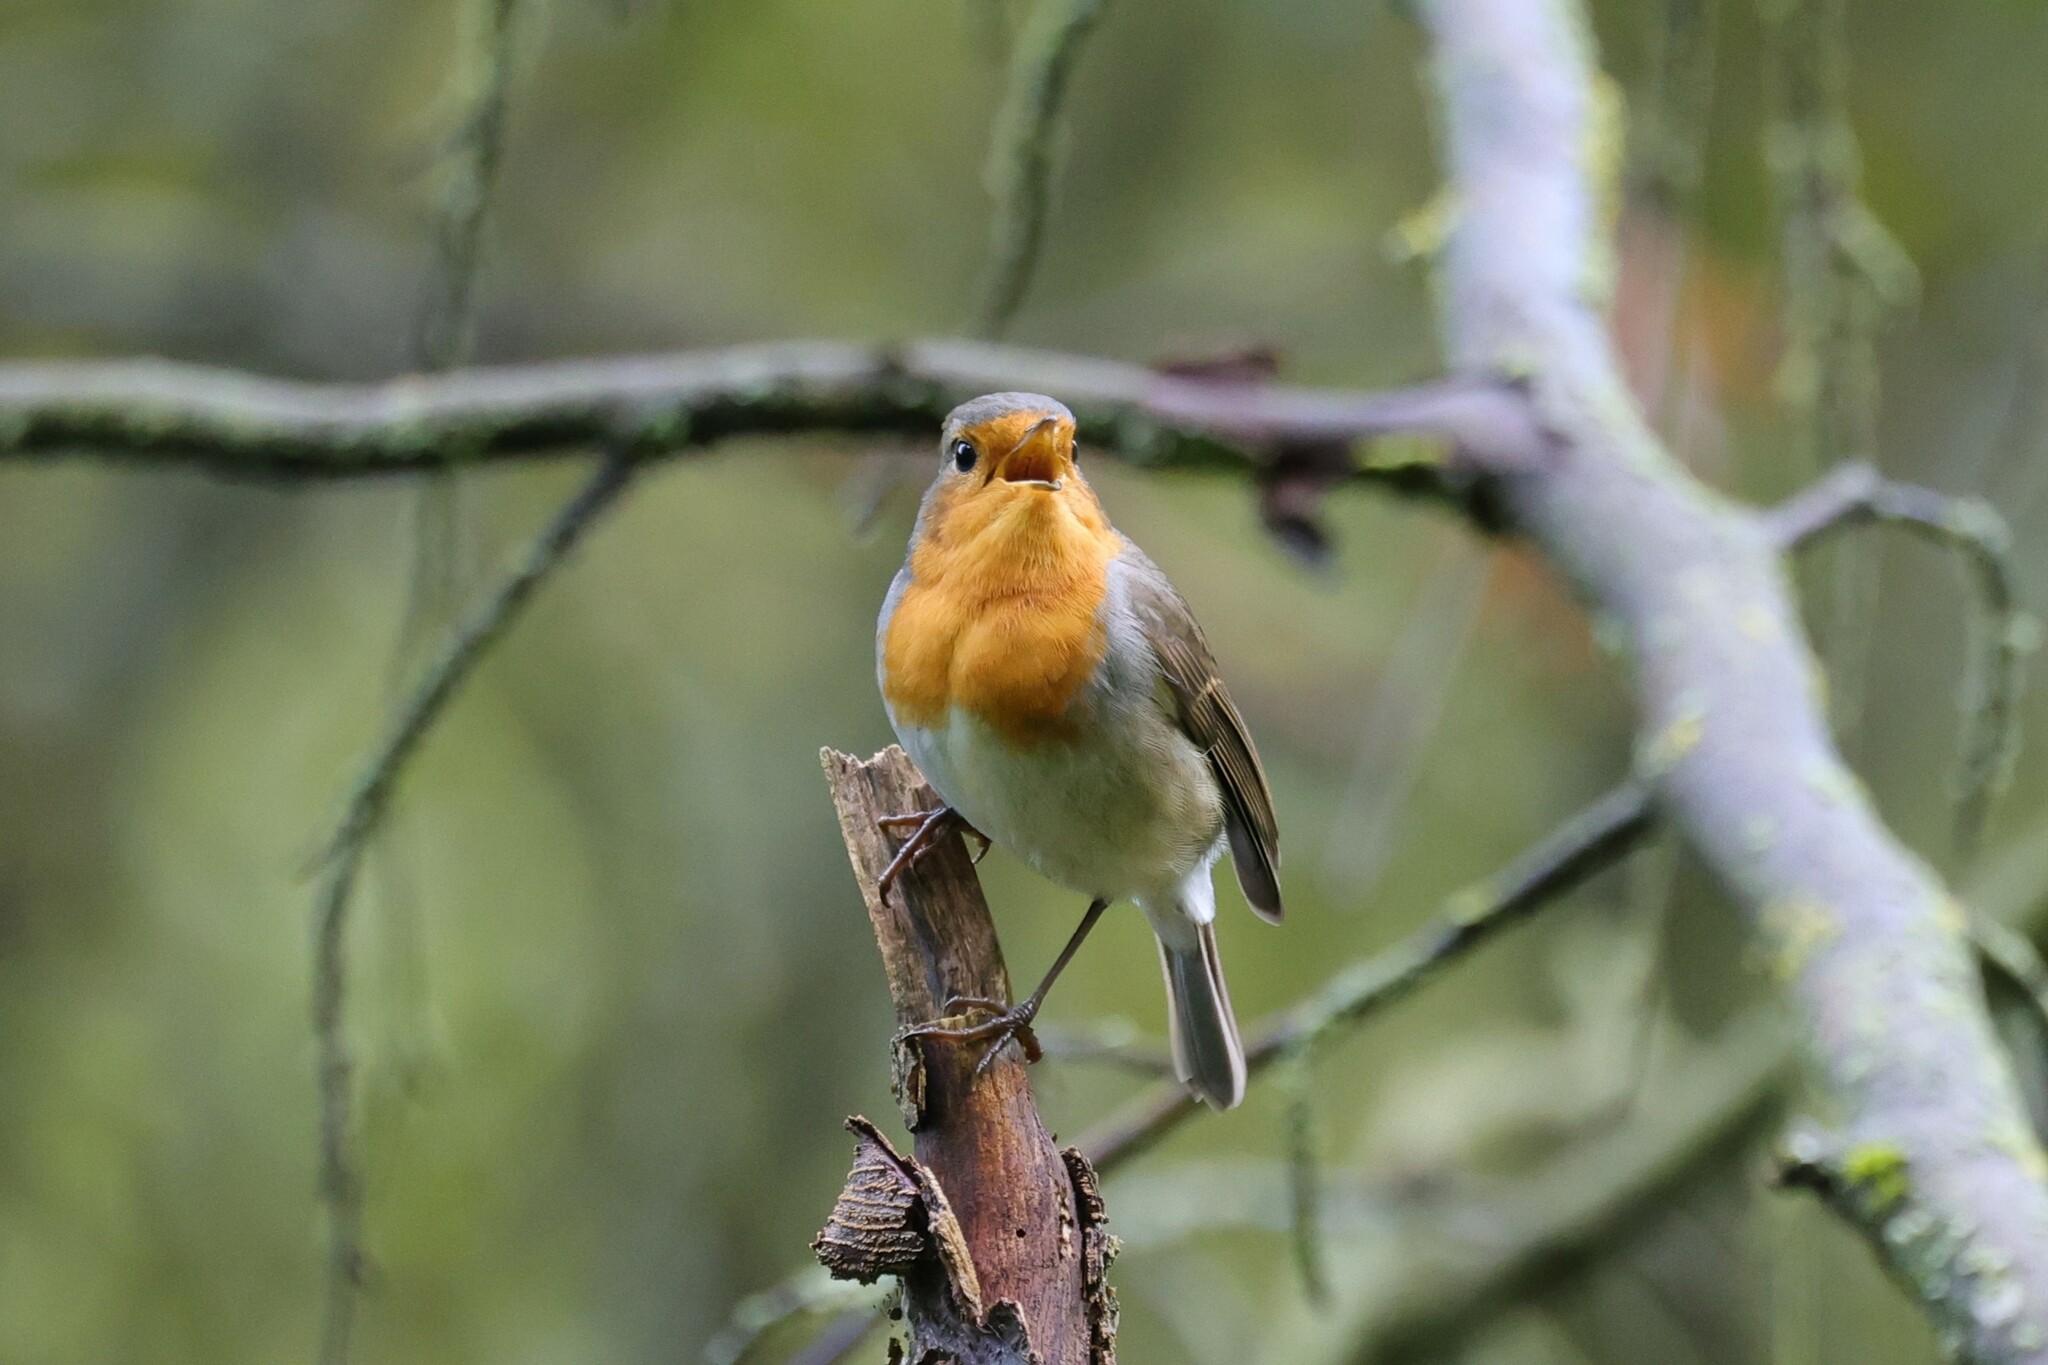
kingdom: Animalia
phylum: Chordata
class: Aves
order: Passeriformes
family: Muscicapidae
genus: Erithacus
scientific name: Erithacus rubecula
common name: European robin
